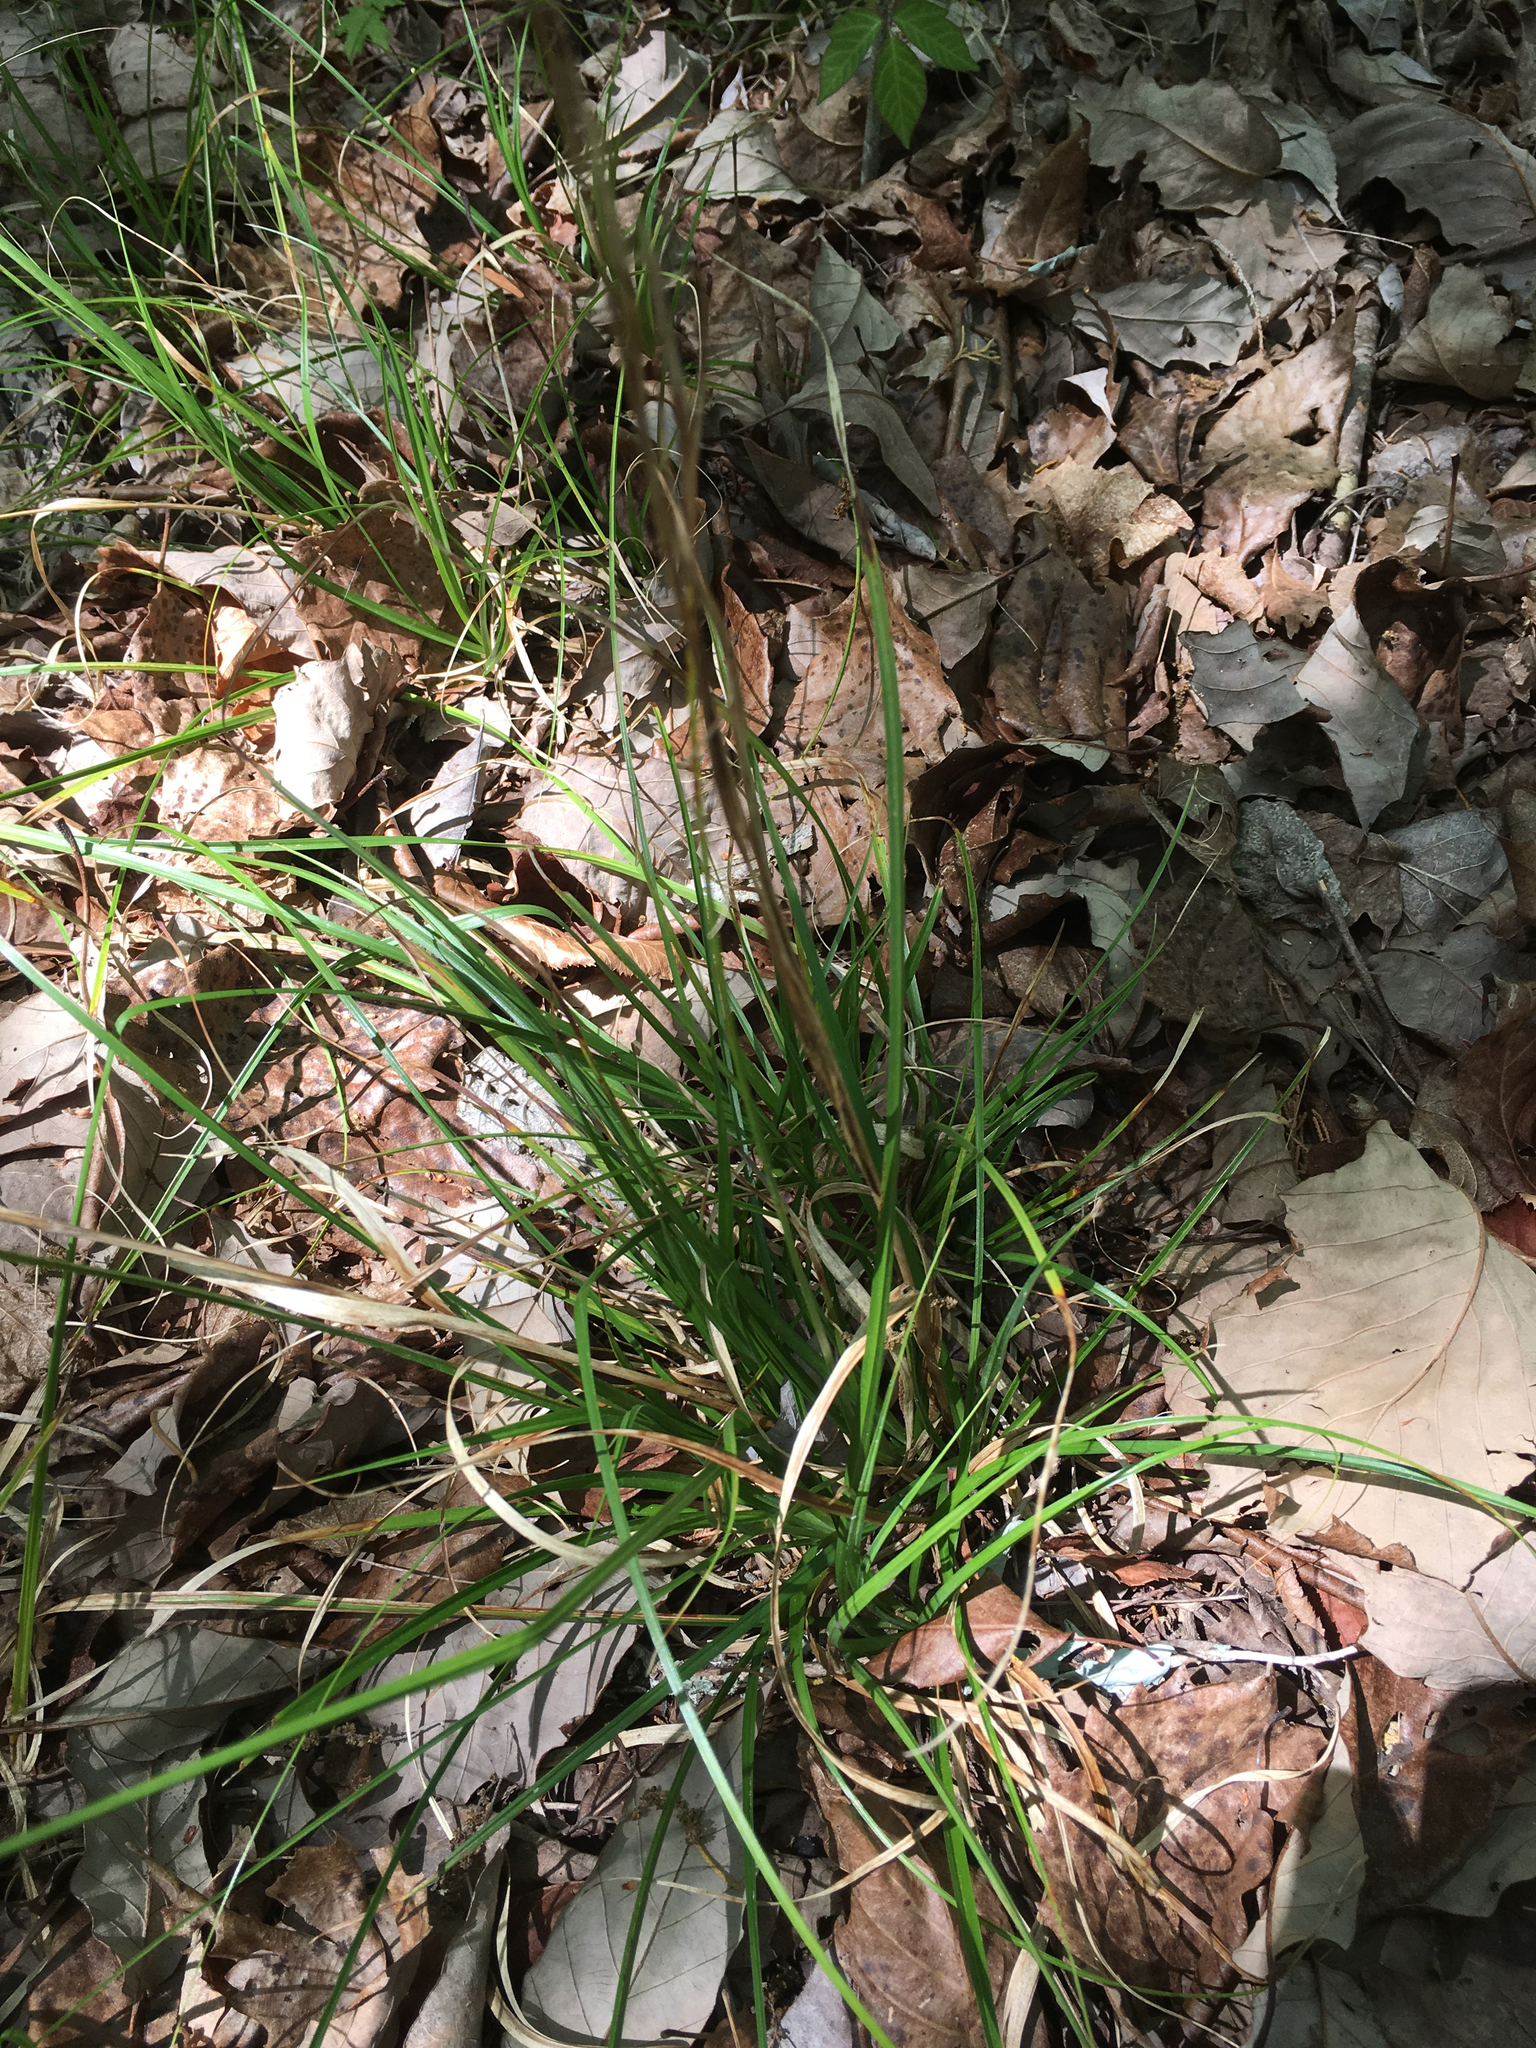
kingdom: Plantae
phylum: Tracheophyta
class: Liliopsida
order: Poales
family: Cyperaceae
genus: Carex
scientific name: Carex cherokeensis
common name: Cherokee sedge
